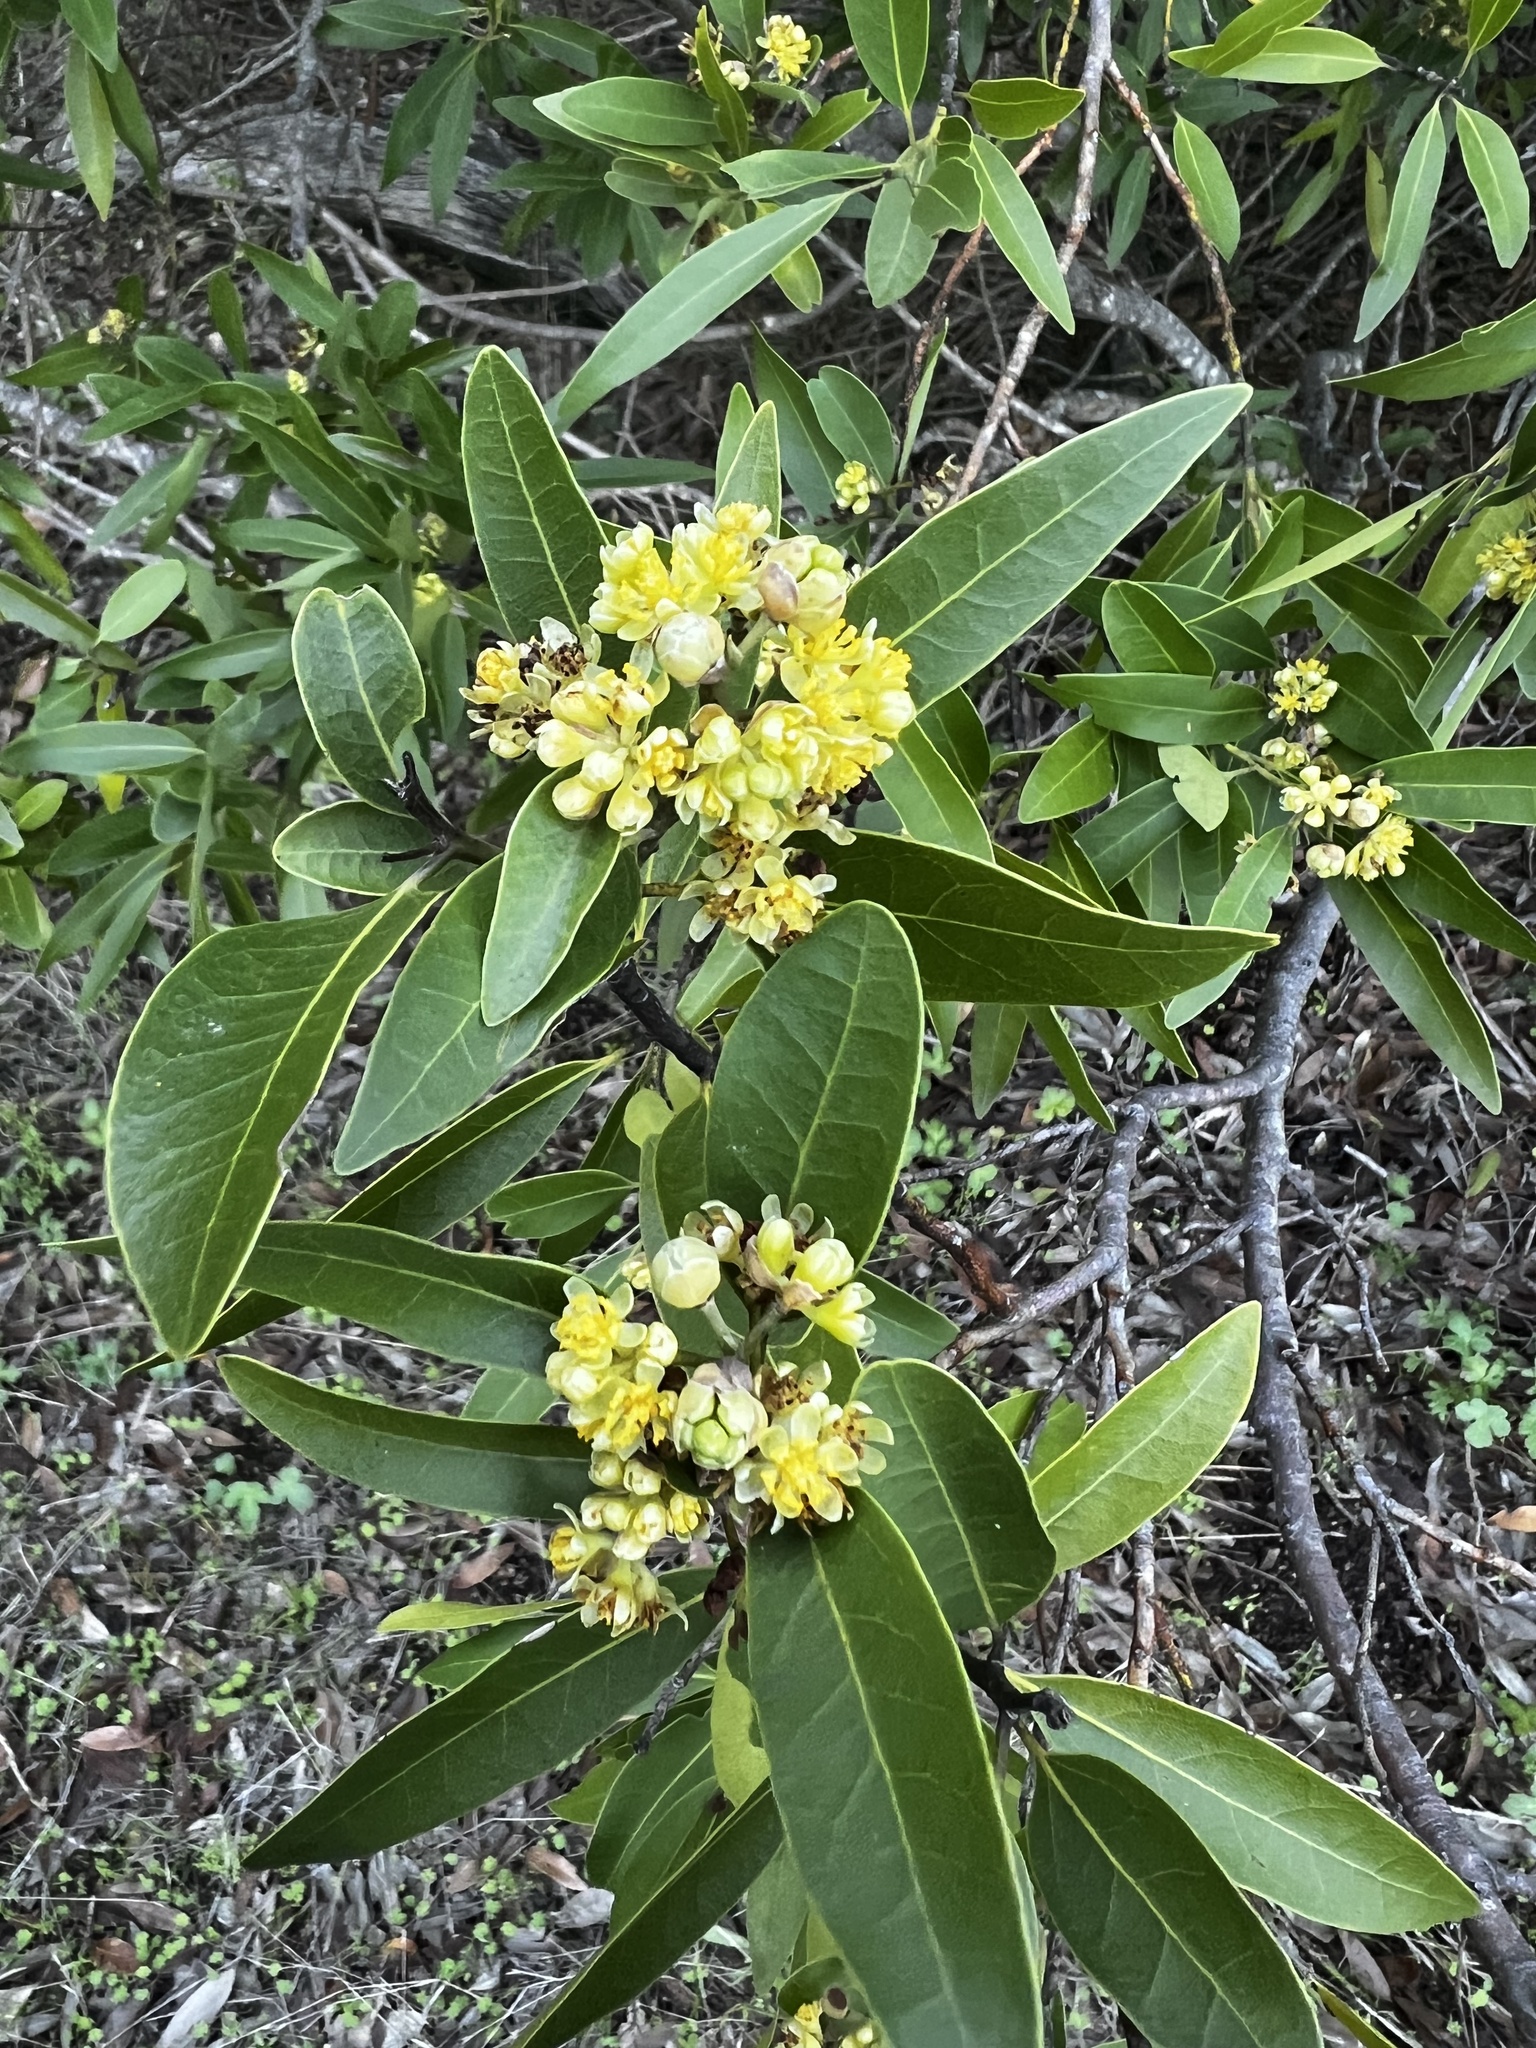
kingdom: Plantae
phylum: Tracheophyta
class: Magnoliopsida
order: Laurales
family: Lauraceae
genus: Umbellularia
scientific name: Umbellularia californica
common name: California bay
